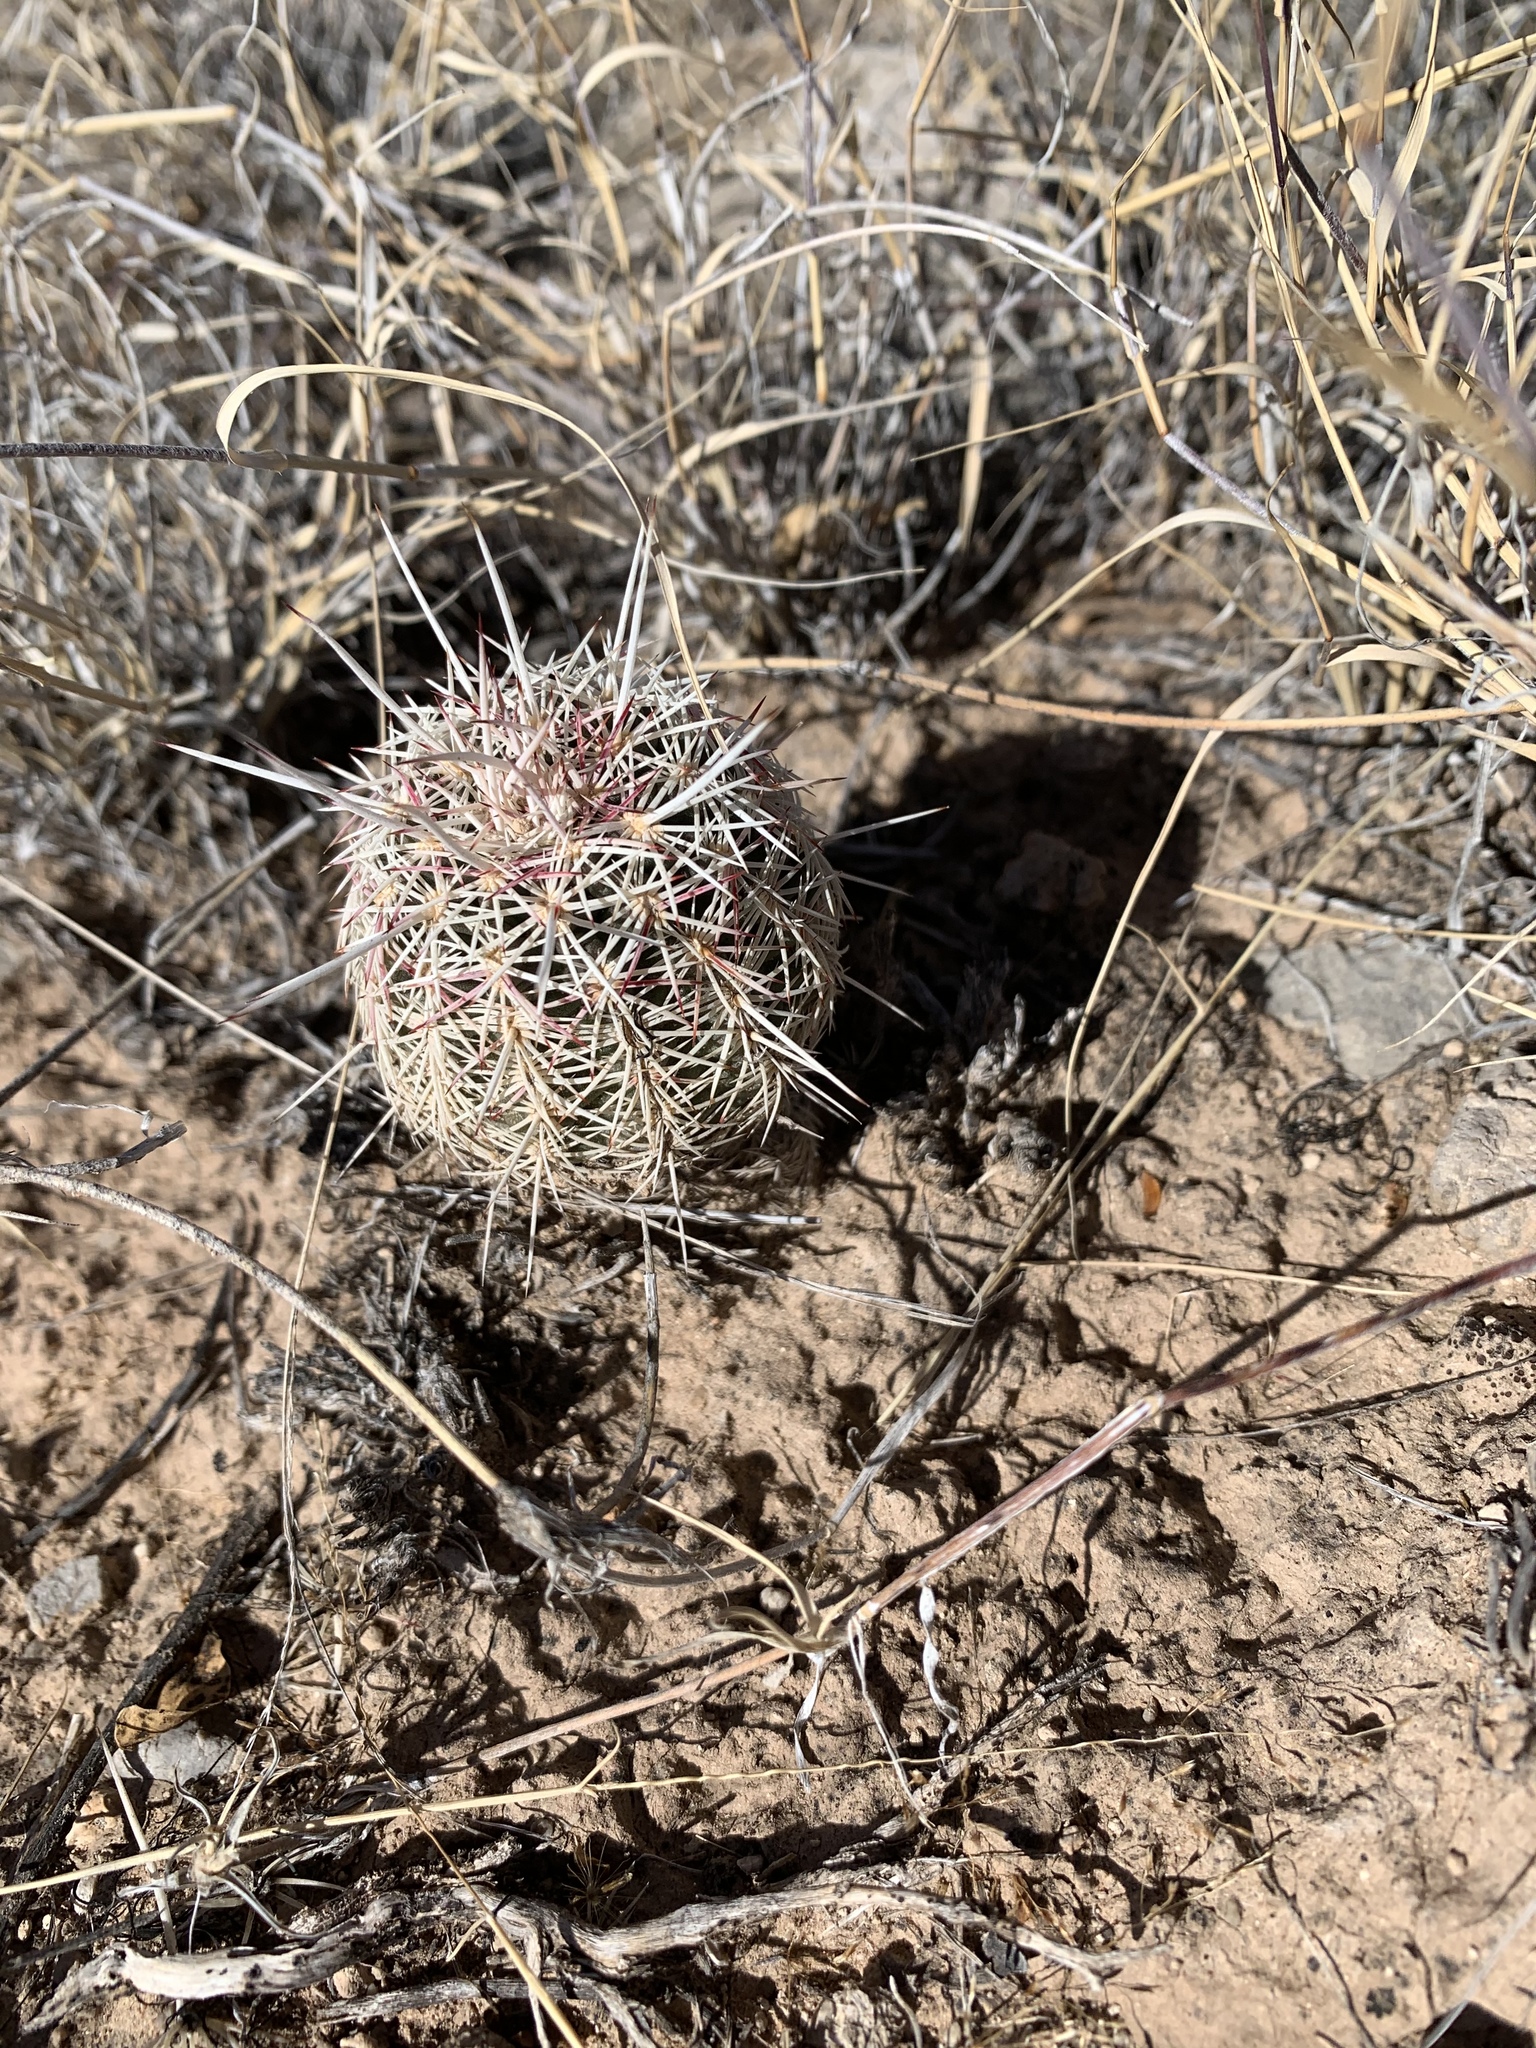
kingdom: Plantae
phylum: Tracheophyta
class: Magnoliopsida
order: Caryophyllales
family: Cactaceae
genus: Echinocereus
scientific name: Echinocereus viridiflorus
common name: Nylon hedgehog cactus
